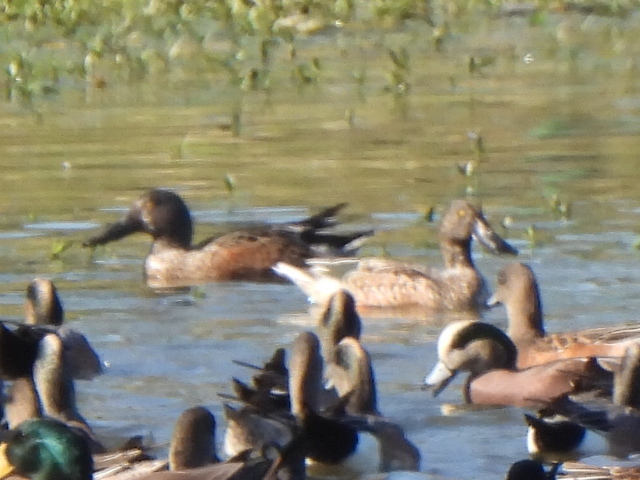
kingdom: Animalia
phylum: Chordata
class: Aves
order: Anseriformes
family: Anatidae
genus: Spatula
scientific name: Spatula clypeata
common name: Northern shoveler
